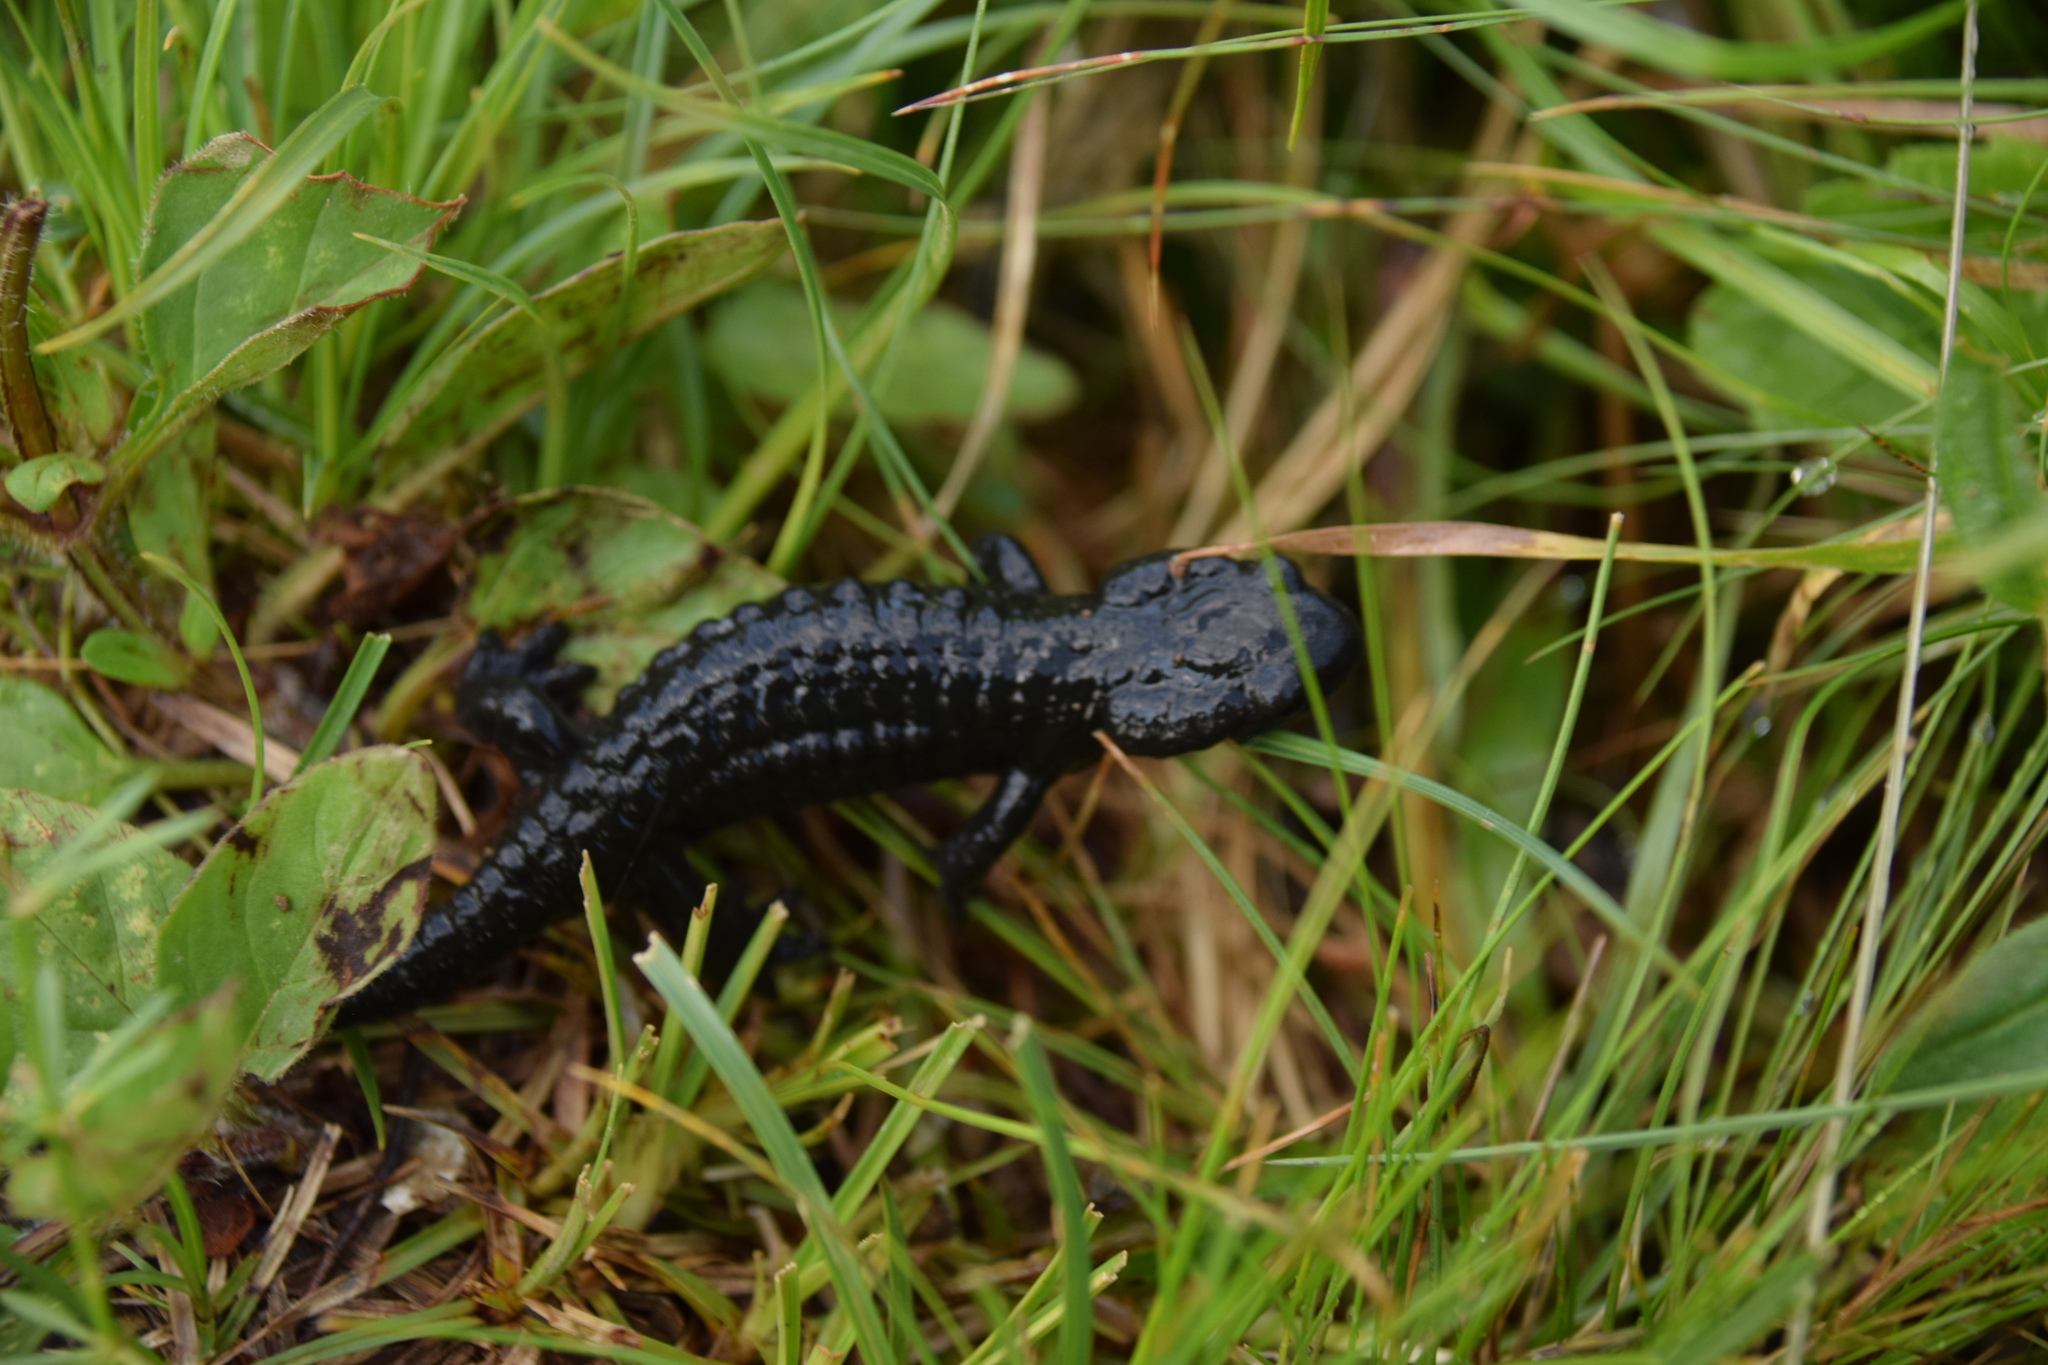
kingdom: Animalia
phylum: Chordata
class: Amphibia
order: Caudata
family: Salamandridae
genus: Salamandra
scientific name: Salamandra atra
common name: Alpine salamander
